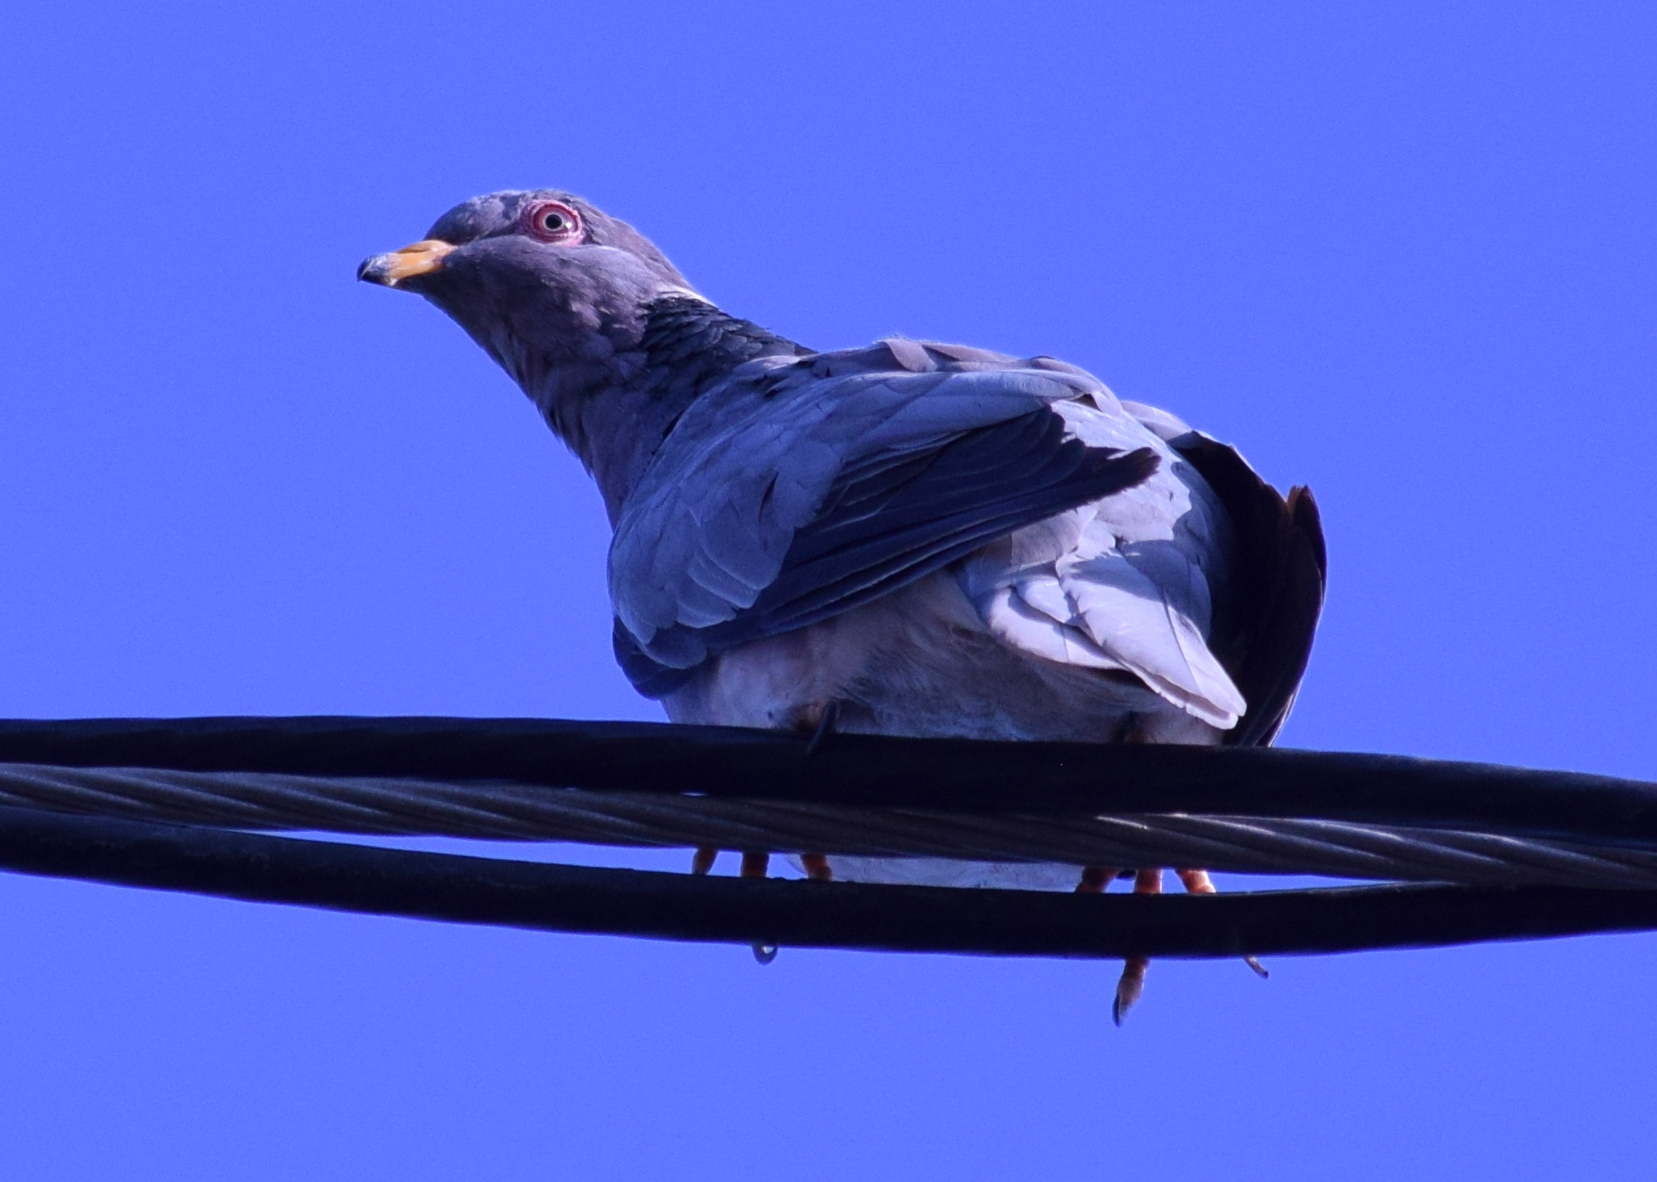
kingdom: Animalia
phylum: Chordata
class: Aves
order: Columbiformes
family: Columbidae
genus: Patagioenas
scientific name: Patagioenas fasciata
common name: Band-tailed pigeon
